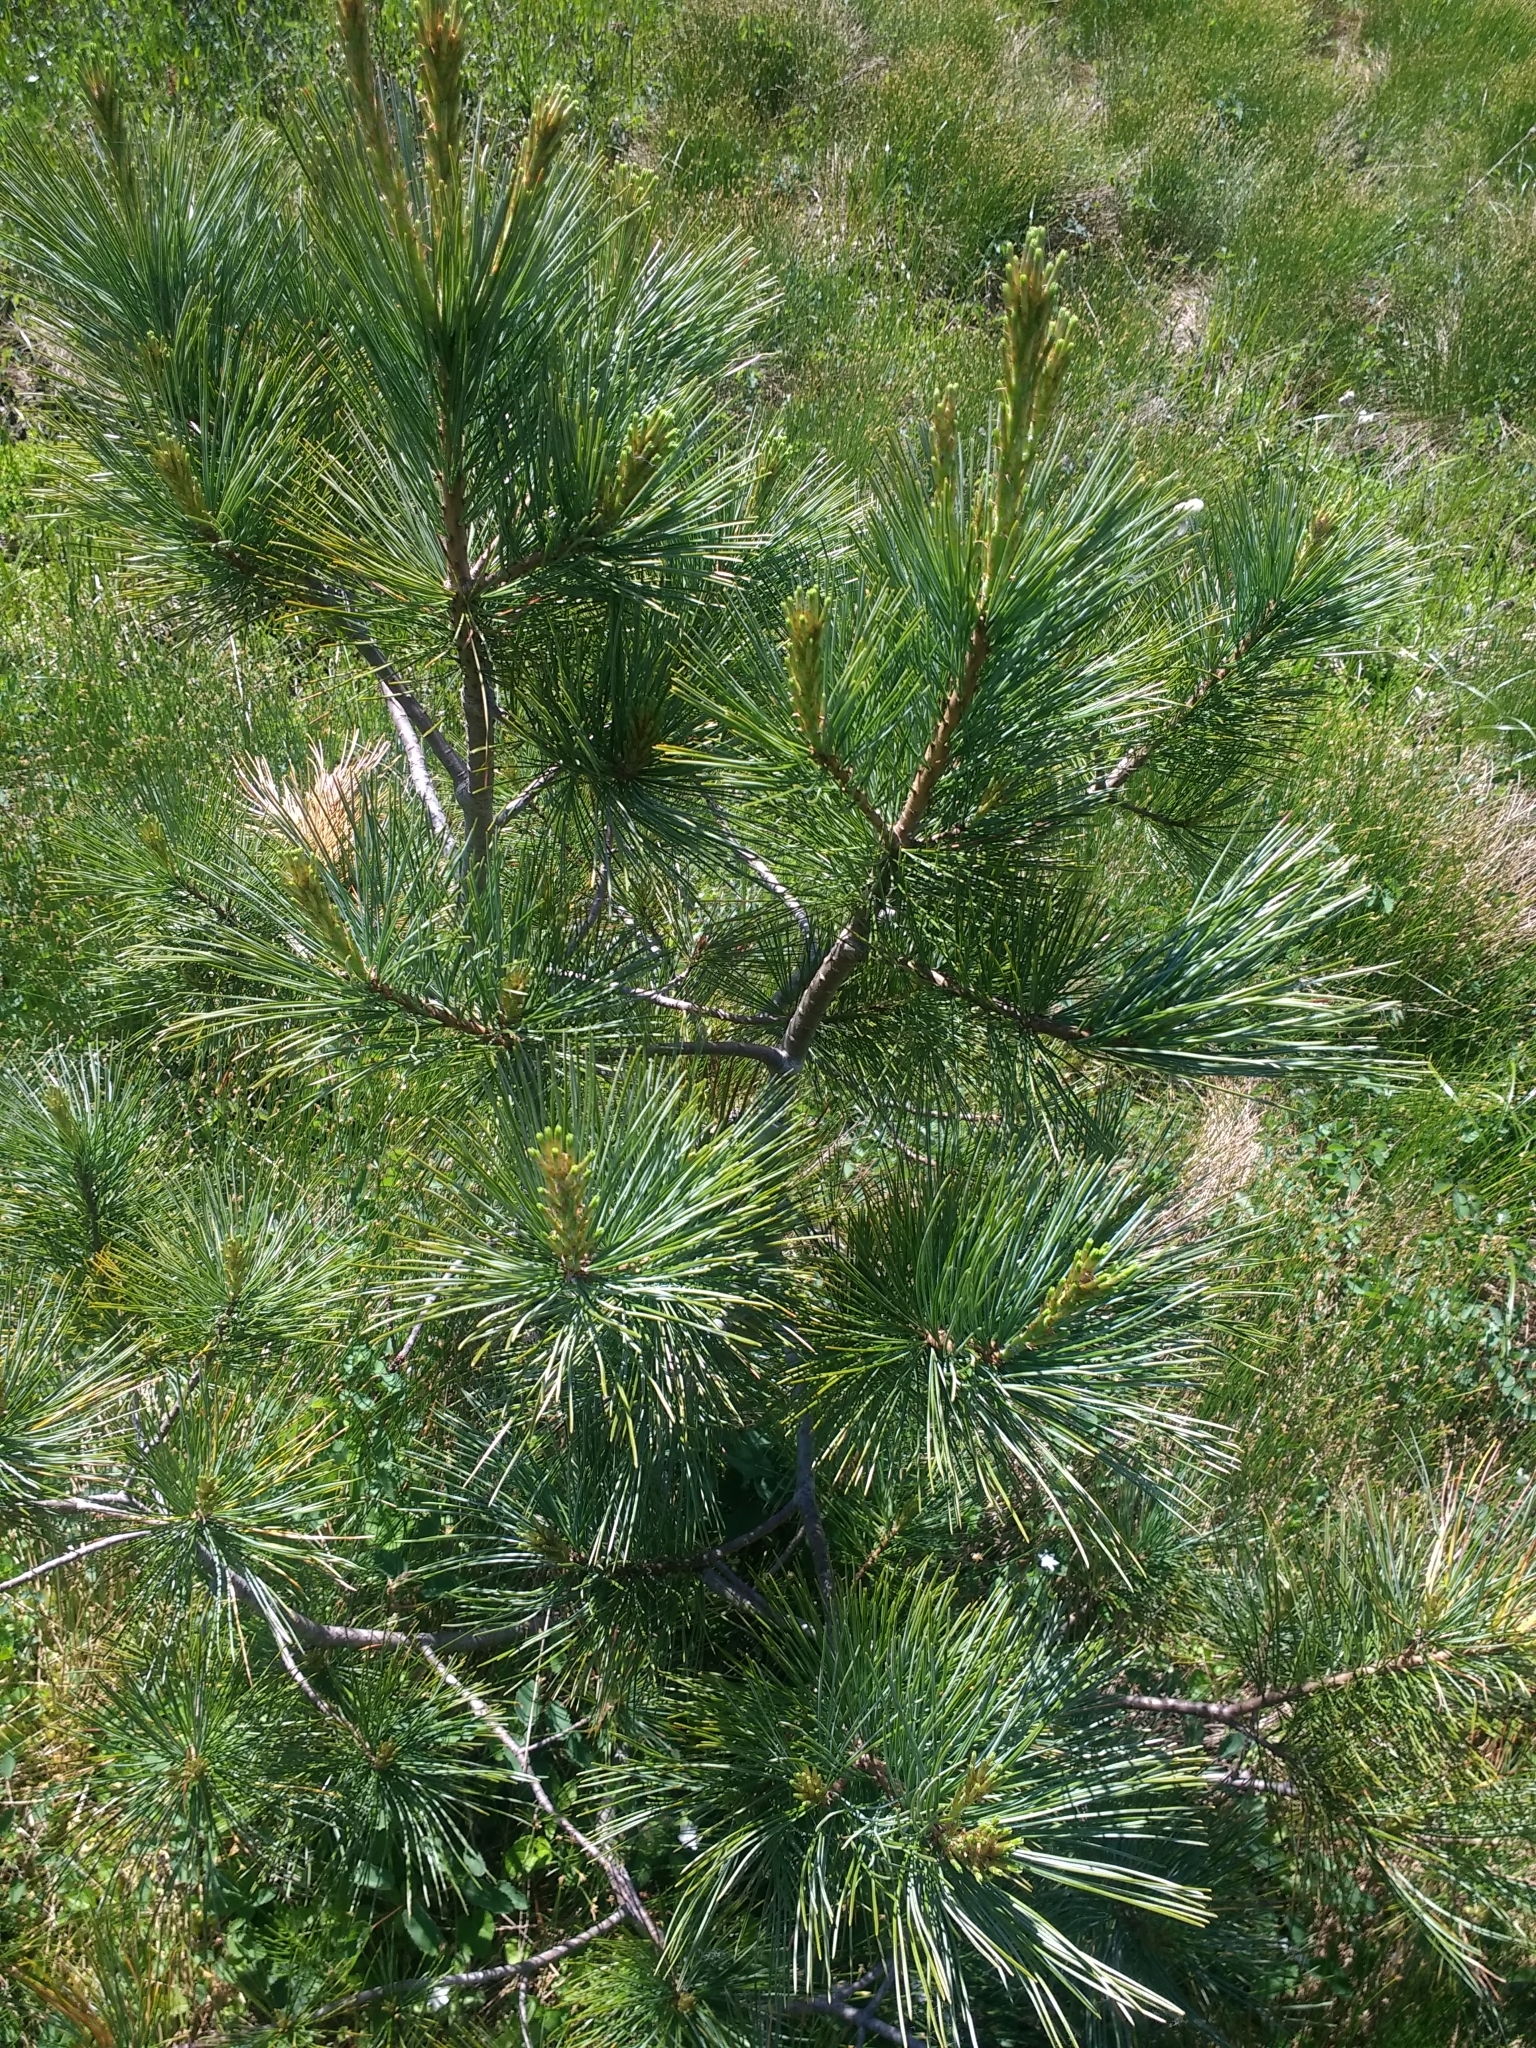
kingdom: Plantae
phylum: Tracheophyta
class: Pinopsida
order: Pinales
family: Pinaceae
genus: Pinus
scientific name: Pinus monticola
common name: Western white pine
